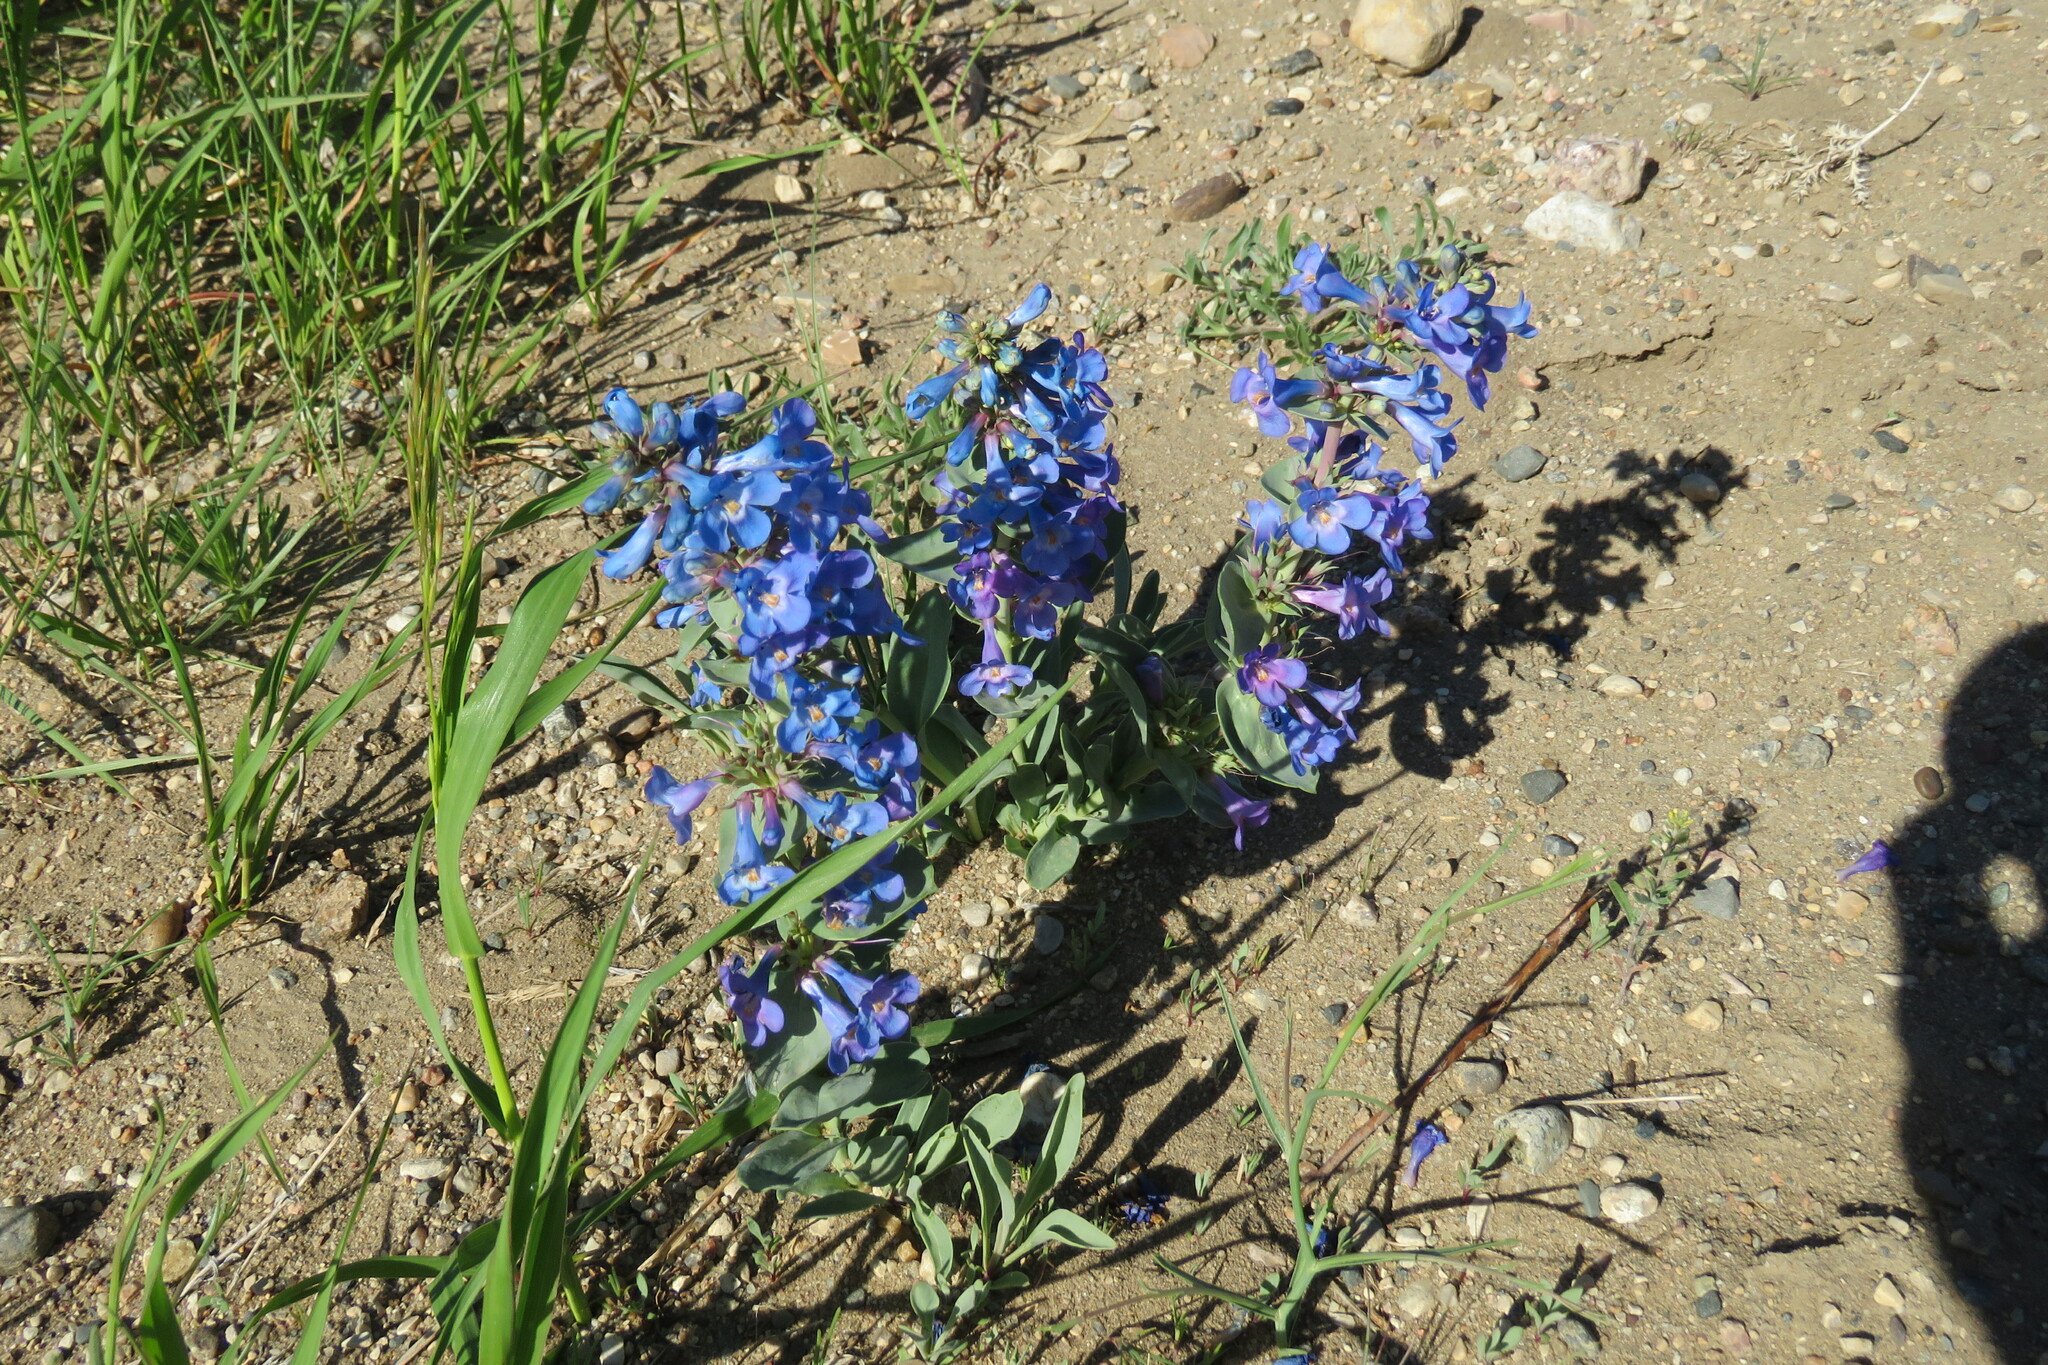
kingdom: Plantae
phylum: Tracheophyta
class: Magnoliopsida
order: Lamiales
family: Plantaginaceae
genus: Penstemon
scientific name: Penstemon nitidus
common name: Shining penstemon
